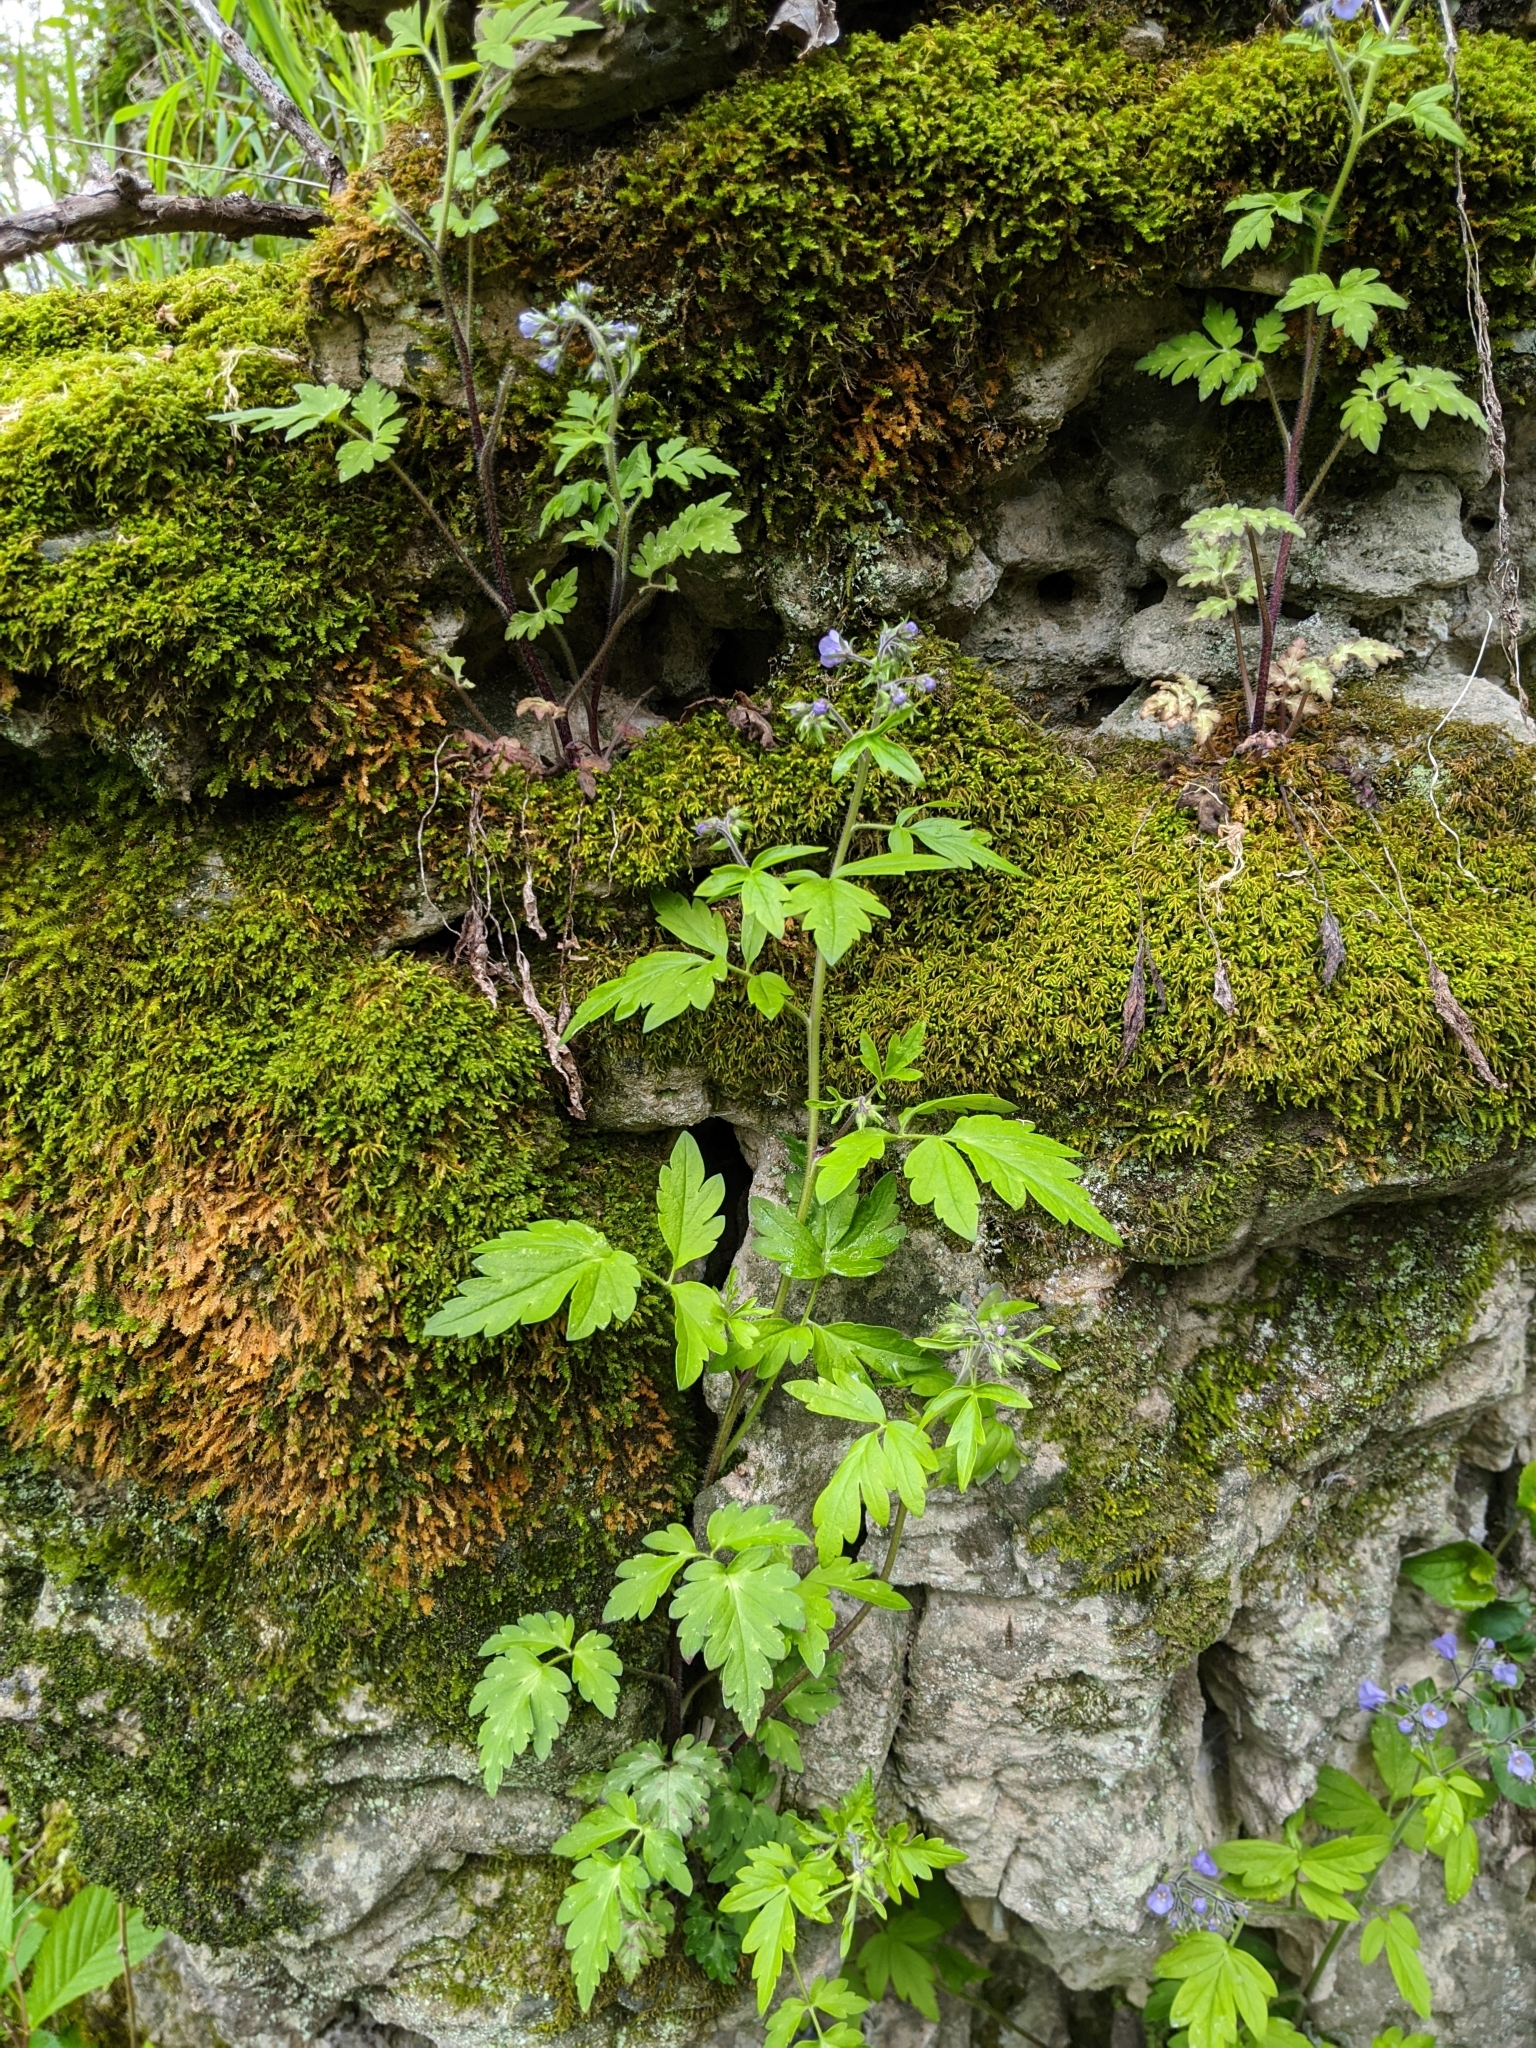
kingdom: Plantae
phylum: Tracheophyta
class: Magnoliopsida
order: Boraginales
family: Hydrophyllaceae
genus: Phacelia
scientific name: Phacelia bipinnatifida
